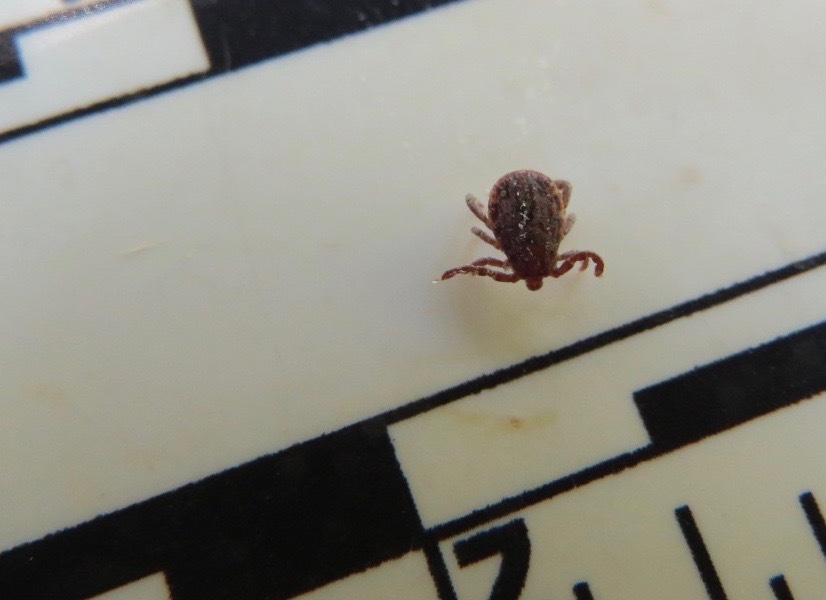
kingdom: Animalia
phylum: Arthropoda
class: Arachnida
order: Ixodida
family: Ixodidae
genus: Dermacentor
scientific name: Dermacentor occidentalis
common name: Net tick
